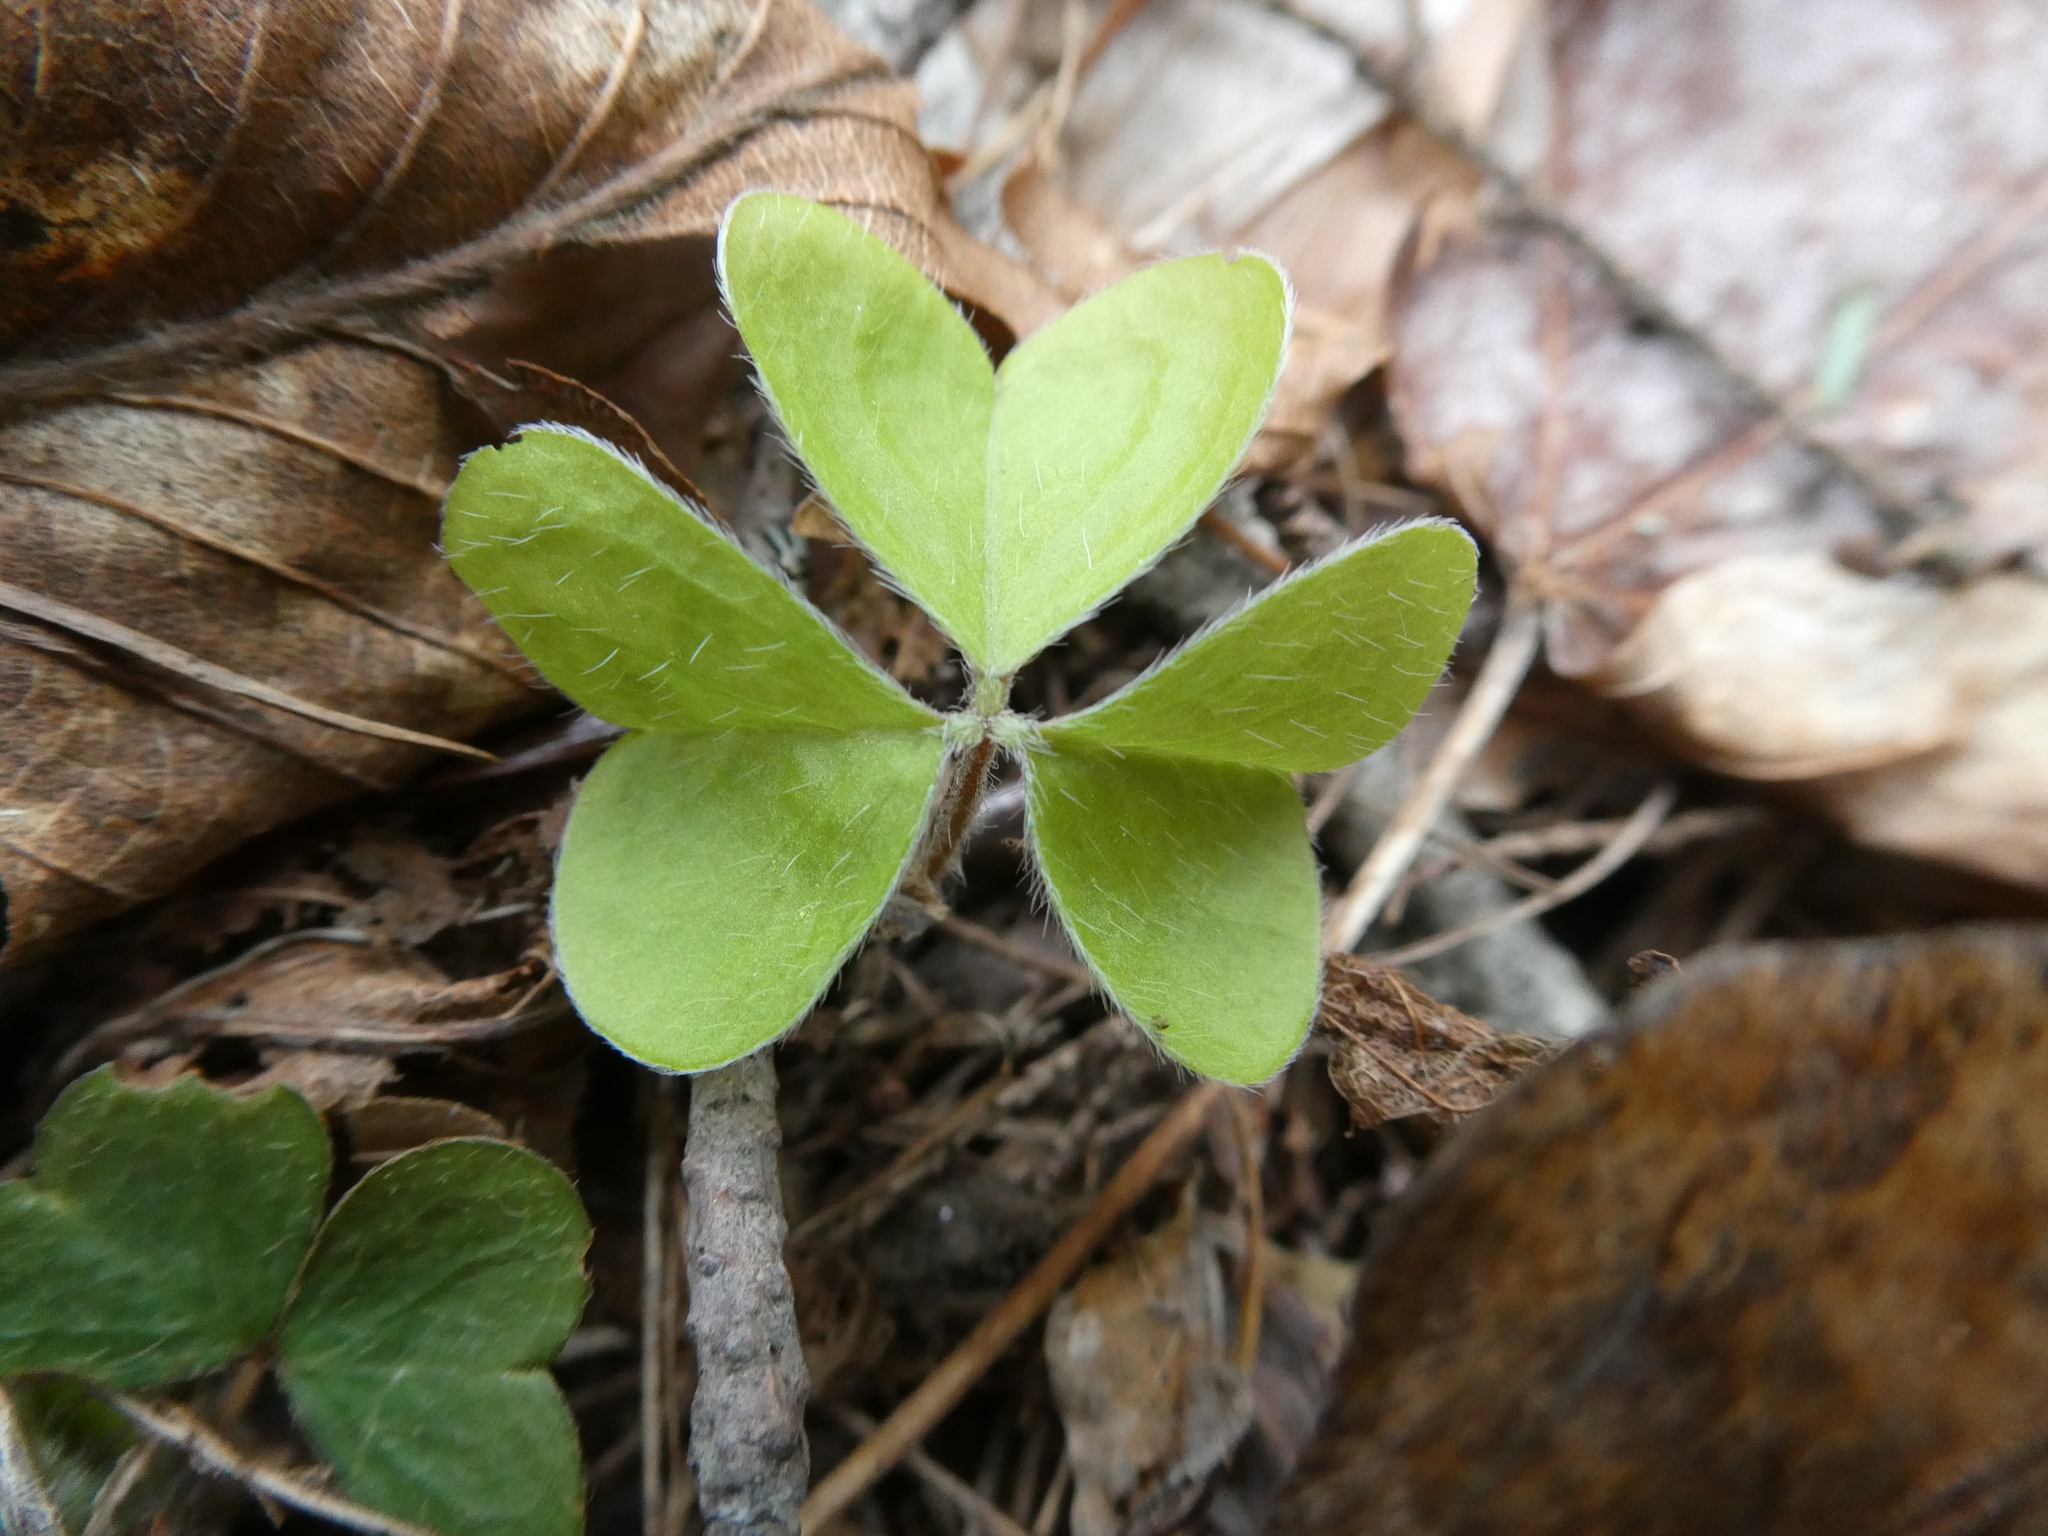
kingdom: Plantae
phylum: Tracheophyta
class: Magnoliopsida
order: Oxalidales
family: Oxalidaceae
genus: Oxalis
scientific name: Oxalis montana
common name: American wood-sorrel
